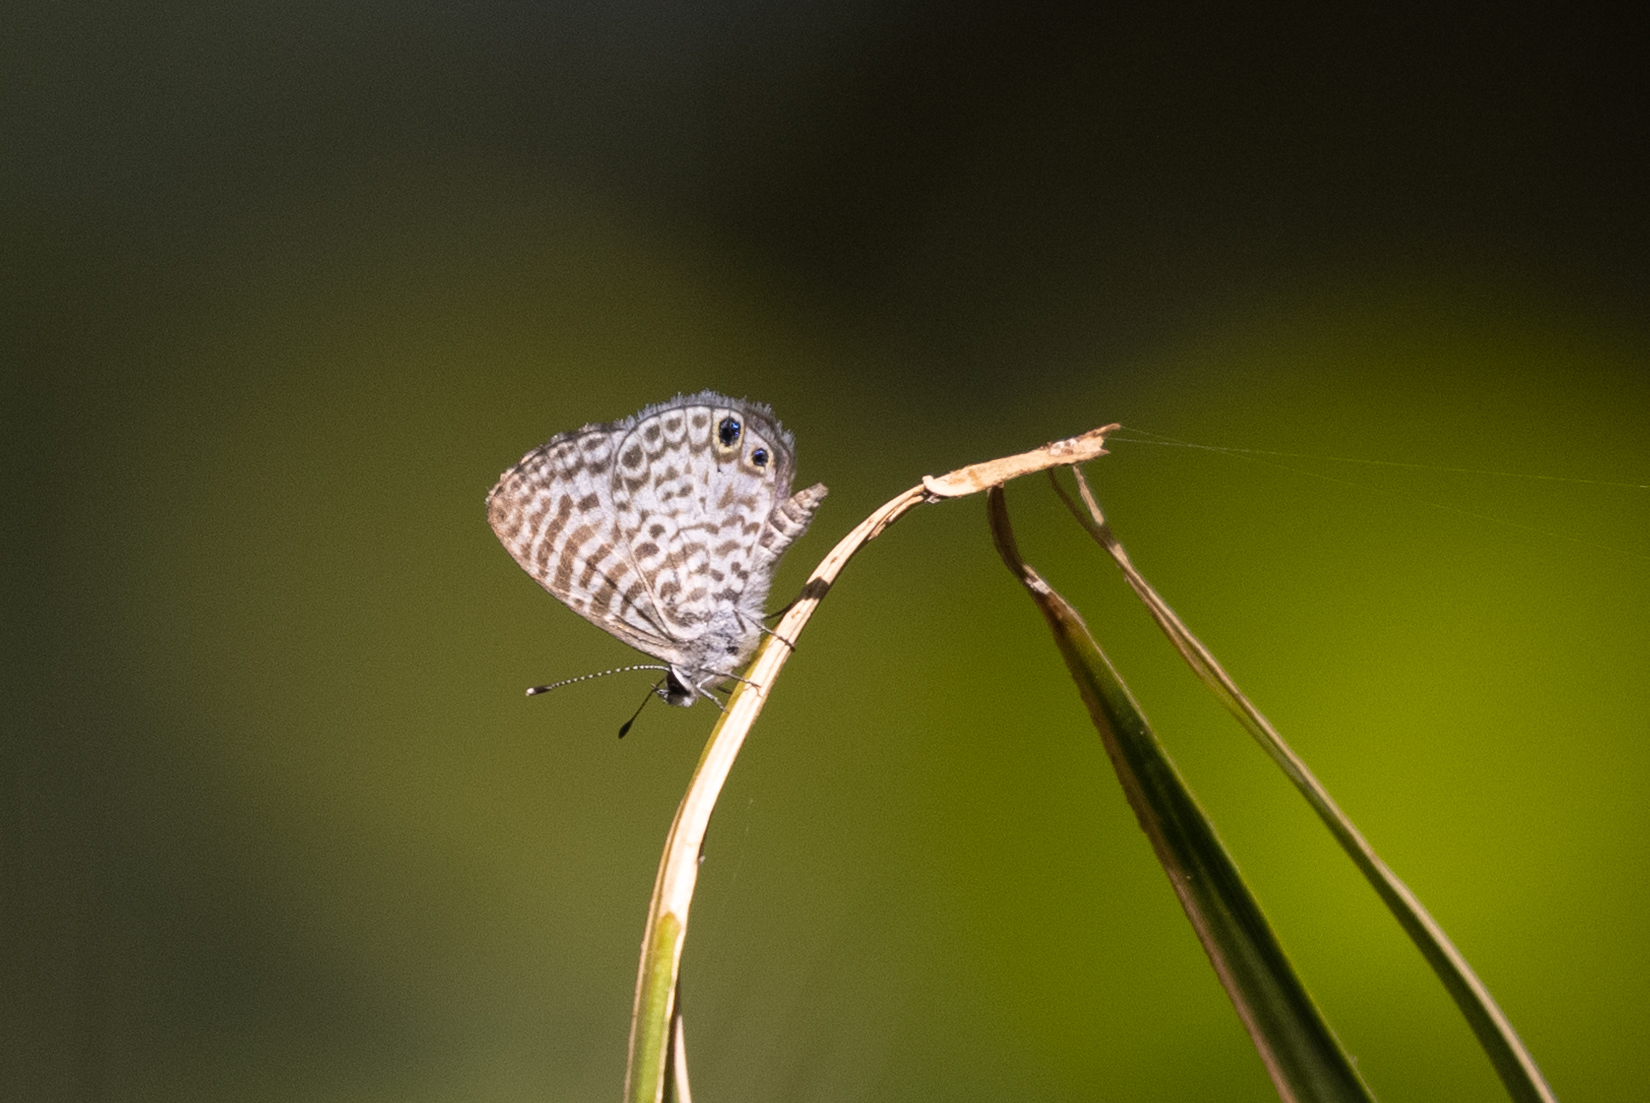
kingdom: Animalia
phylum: Arthropoda
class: Insecta
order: Lepidoptera
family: Lycaenidae
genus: Leptotes
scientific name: Leptotes cassius
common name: Cassius blue
